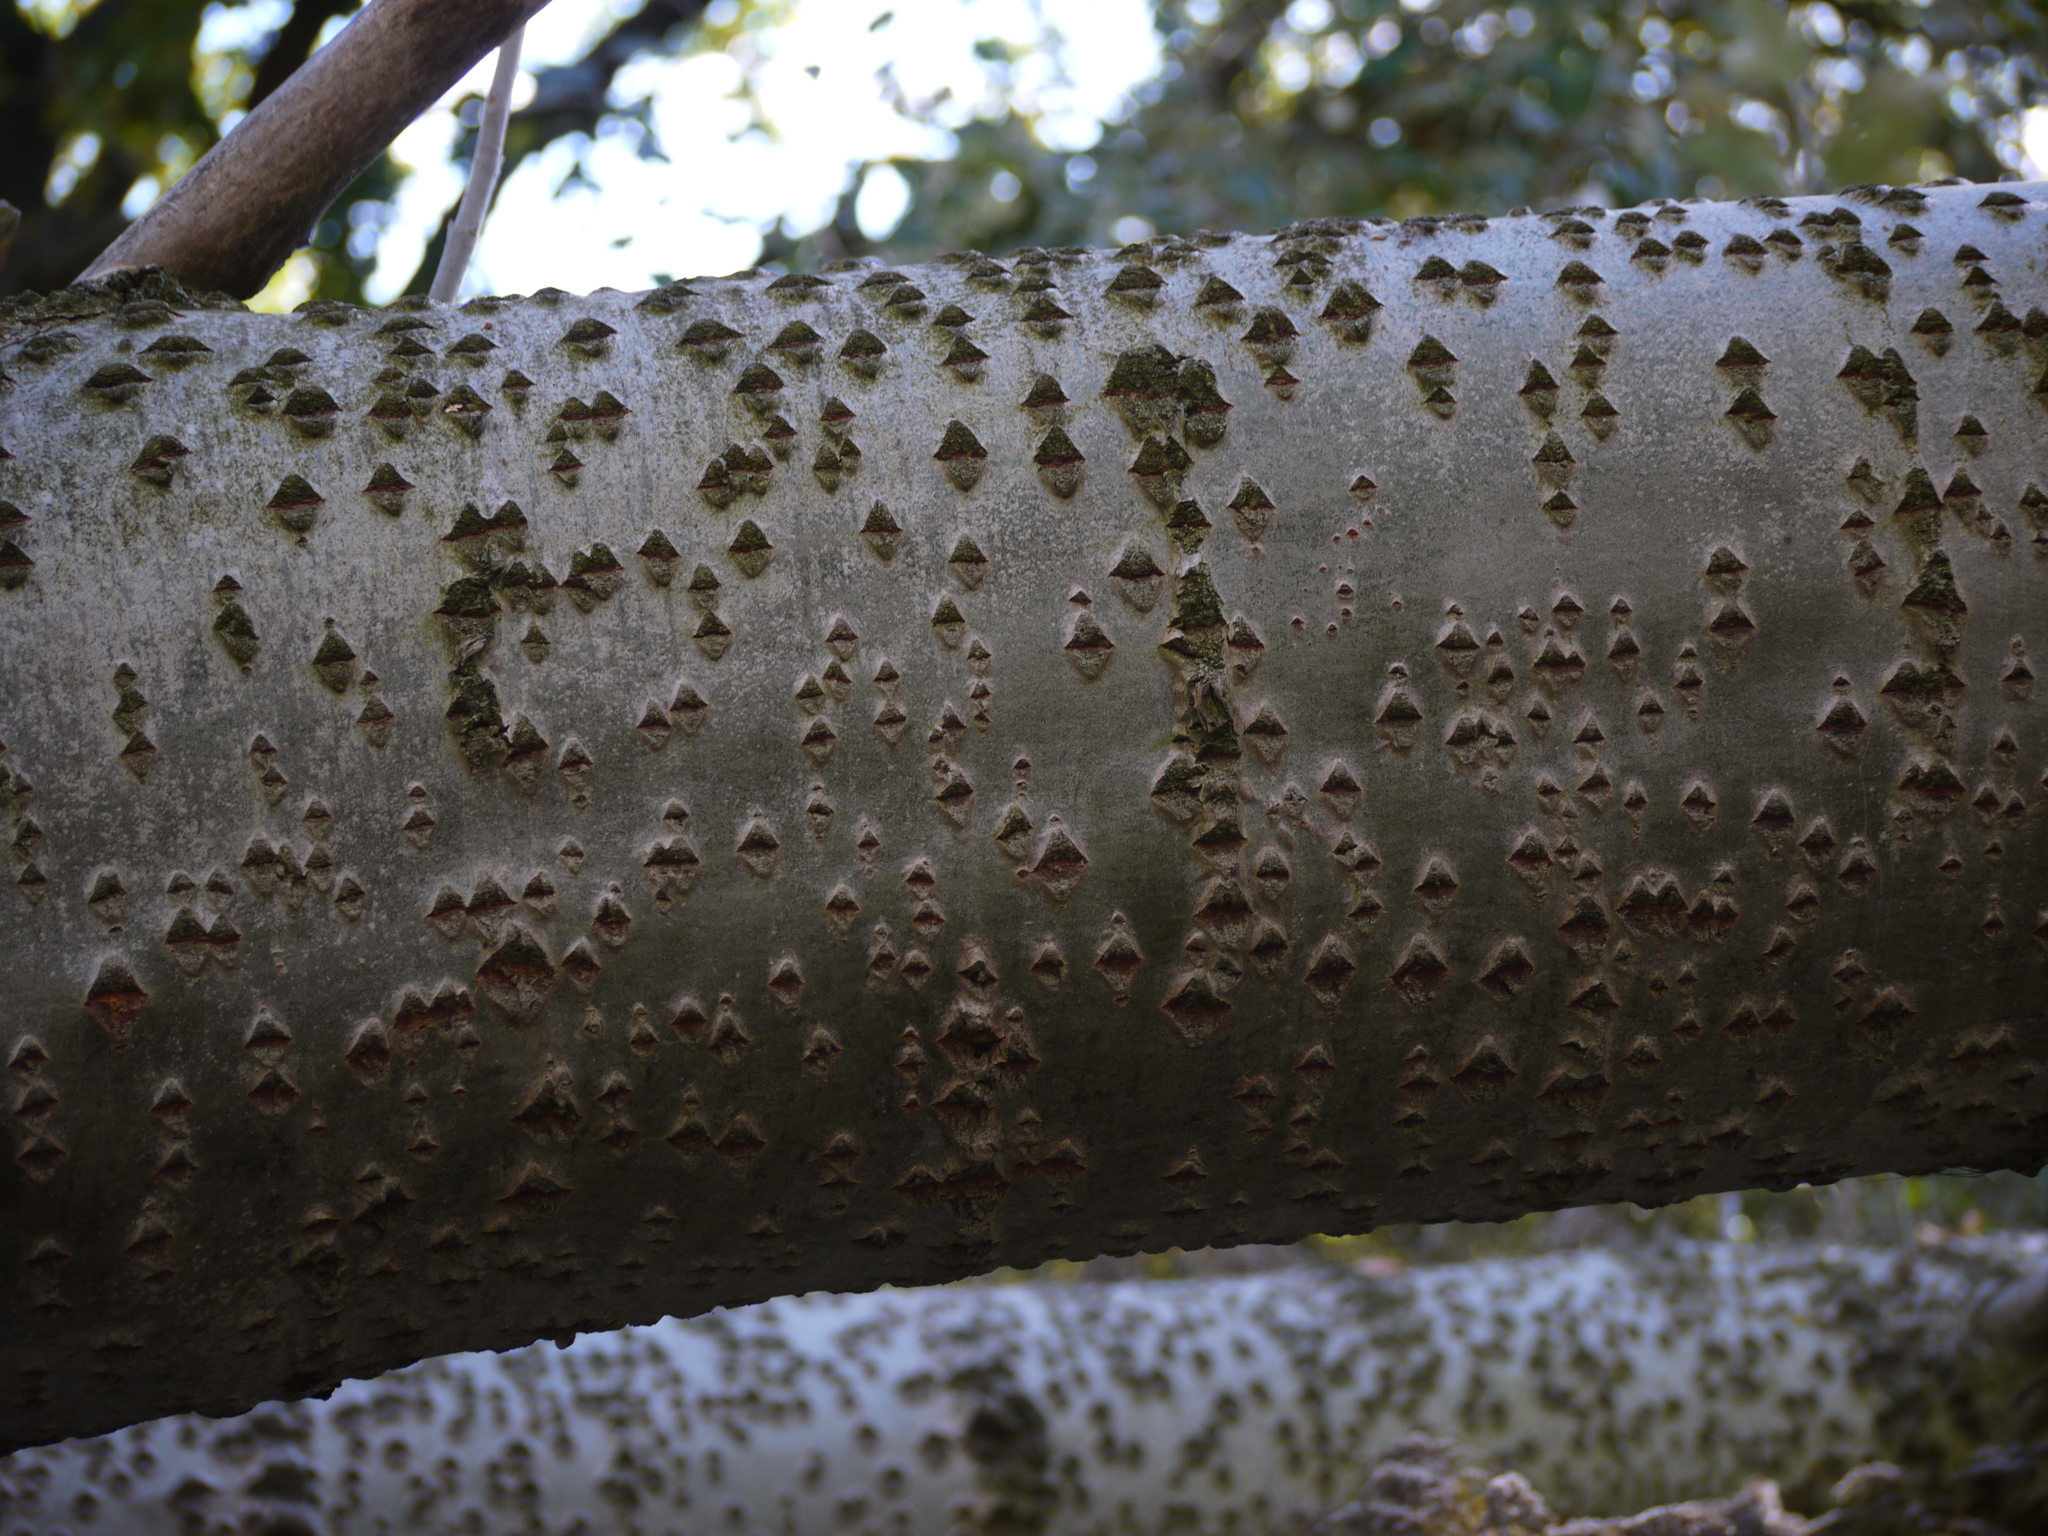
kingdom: Plantae
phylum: Tracheophyta
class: Magnoliopsida
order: Malpighiales
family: Salicaceae
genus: Populus
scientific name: Populus alba
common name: White poplar
